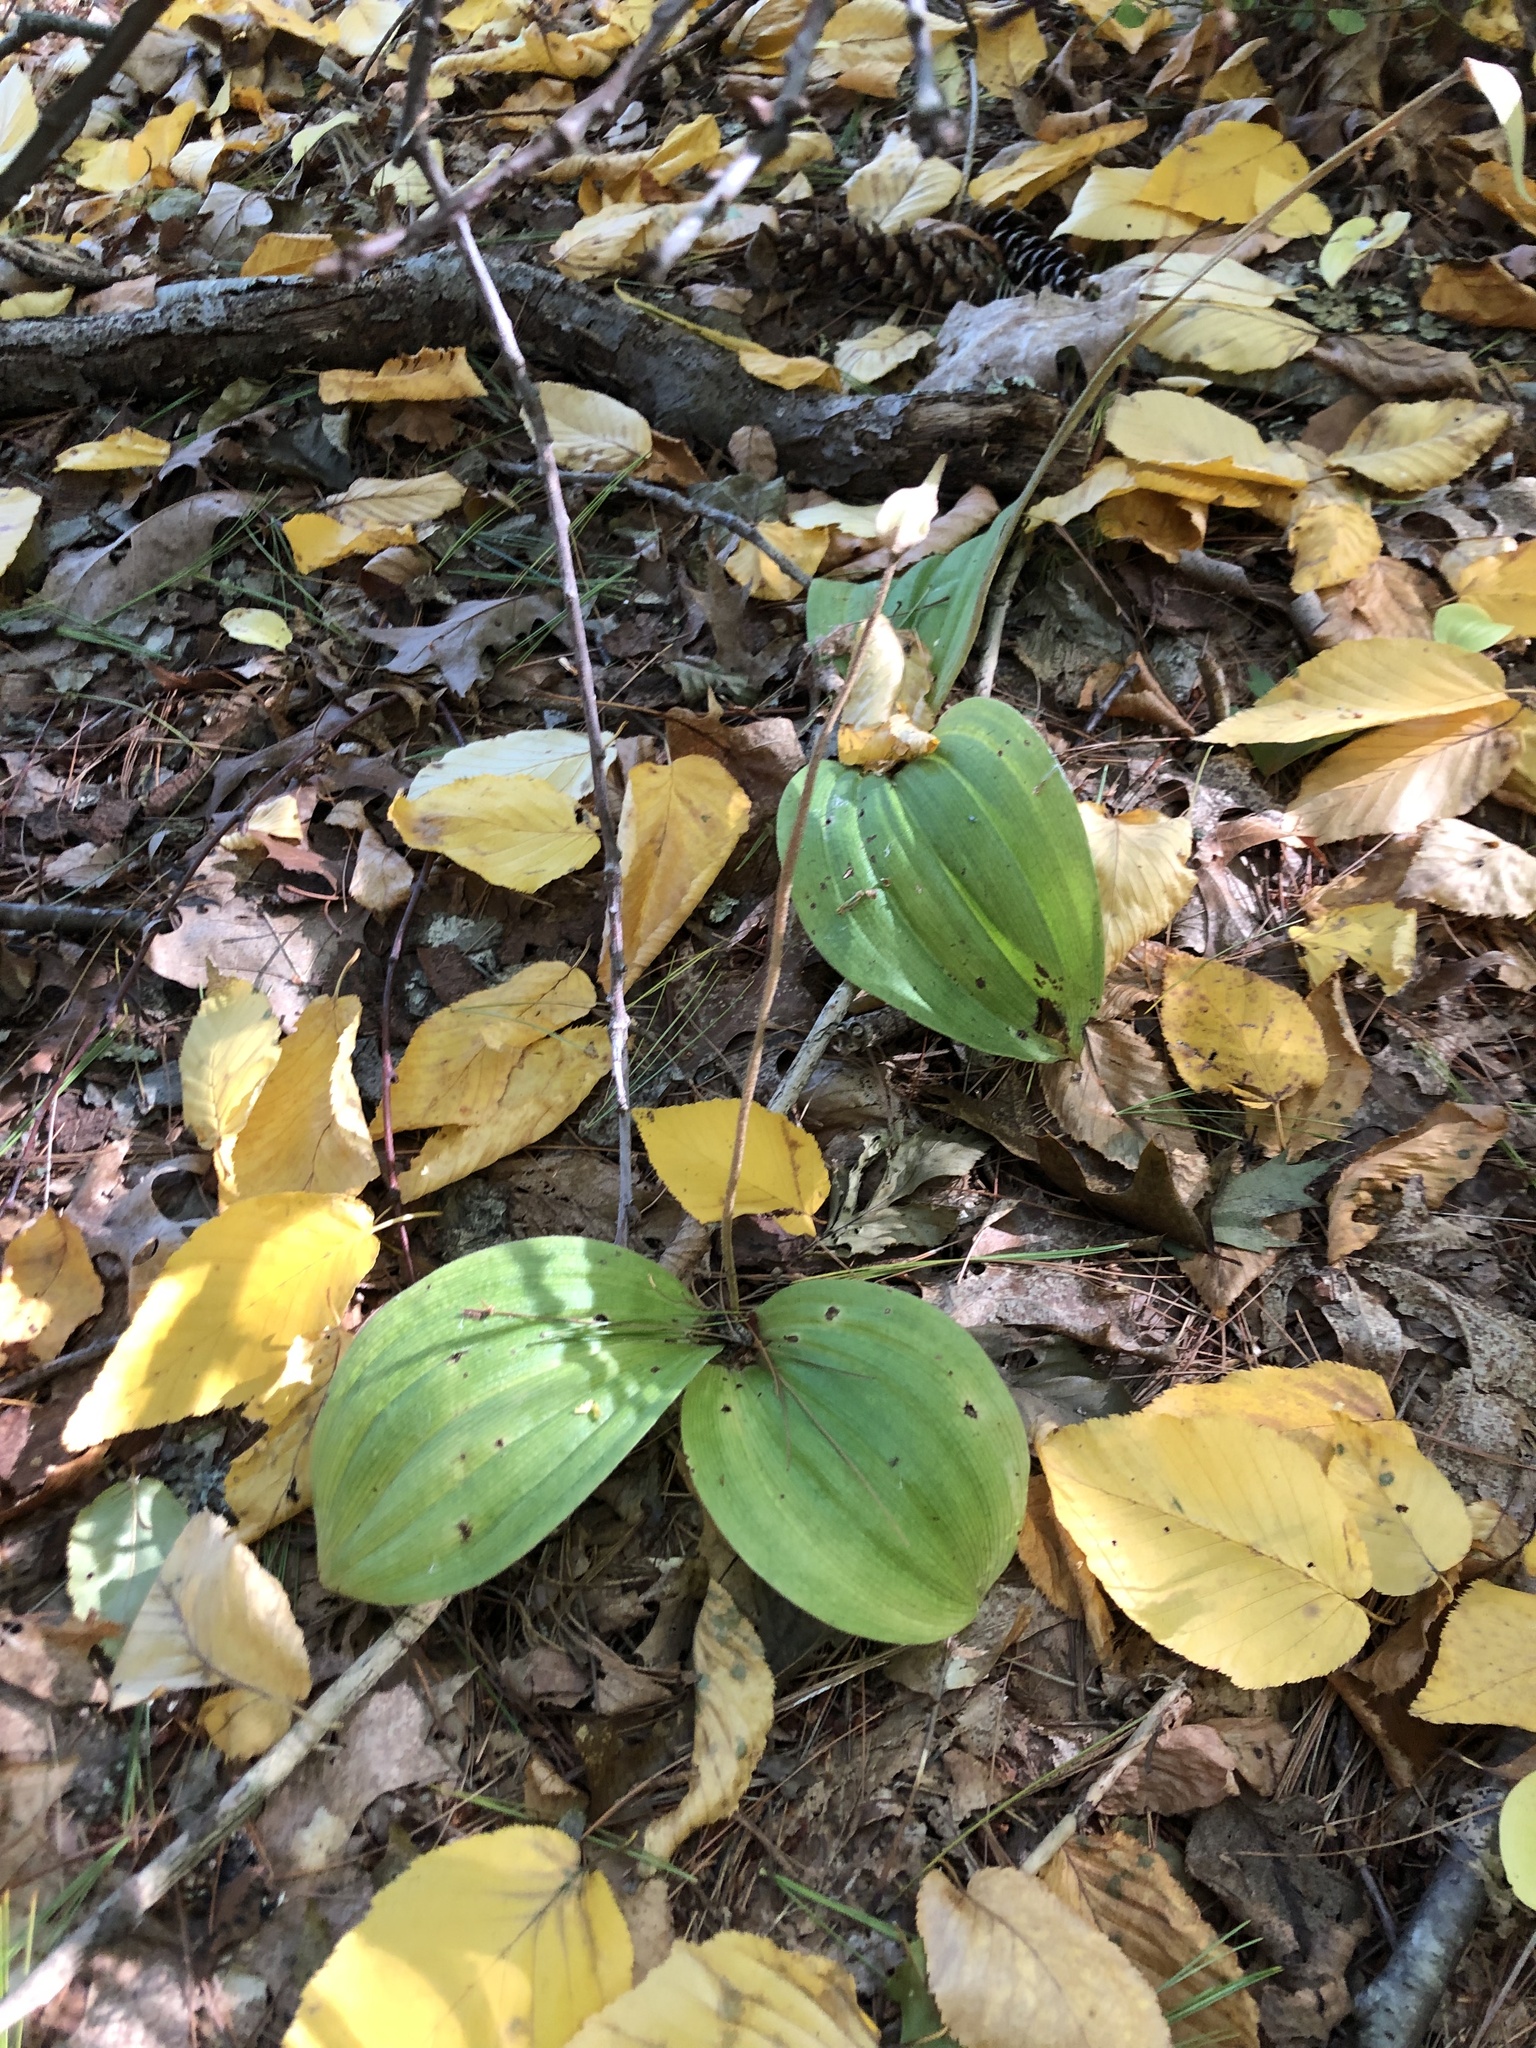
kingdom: Plantae
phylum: Tracheophyta
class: Liliopsida
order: Asparagales
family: Orchidaceae
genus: Cypripedium
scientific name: Cypripedium acaule
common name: Pink lady's-slipper
